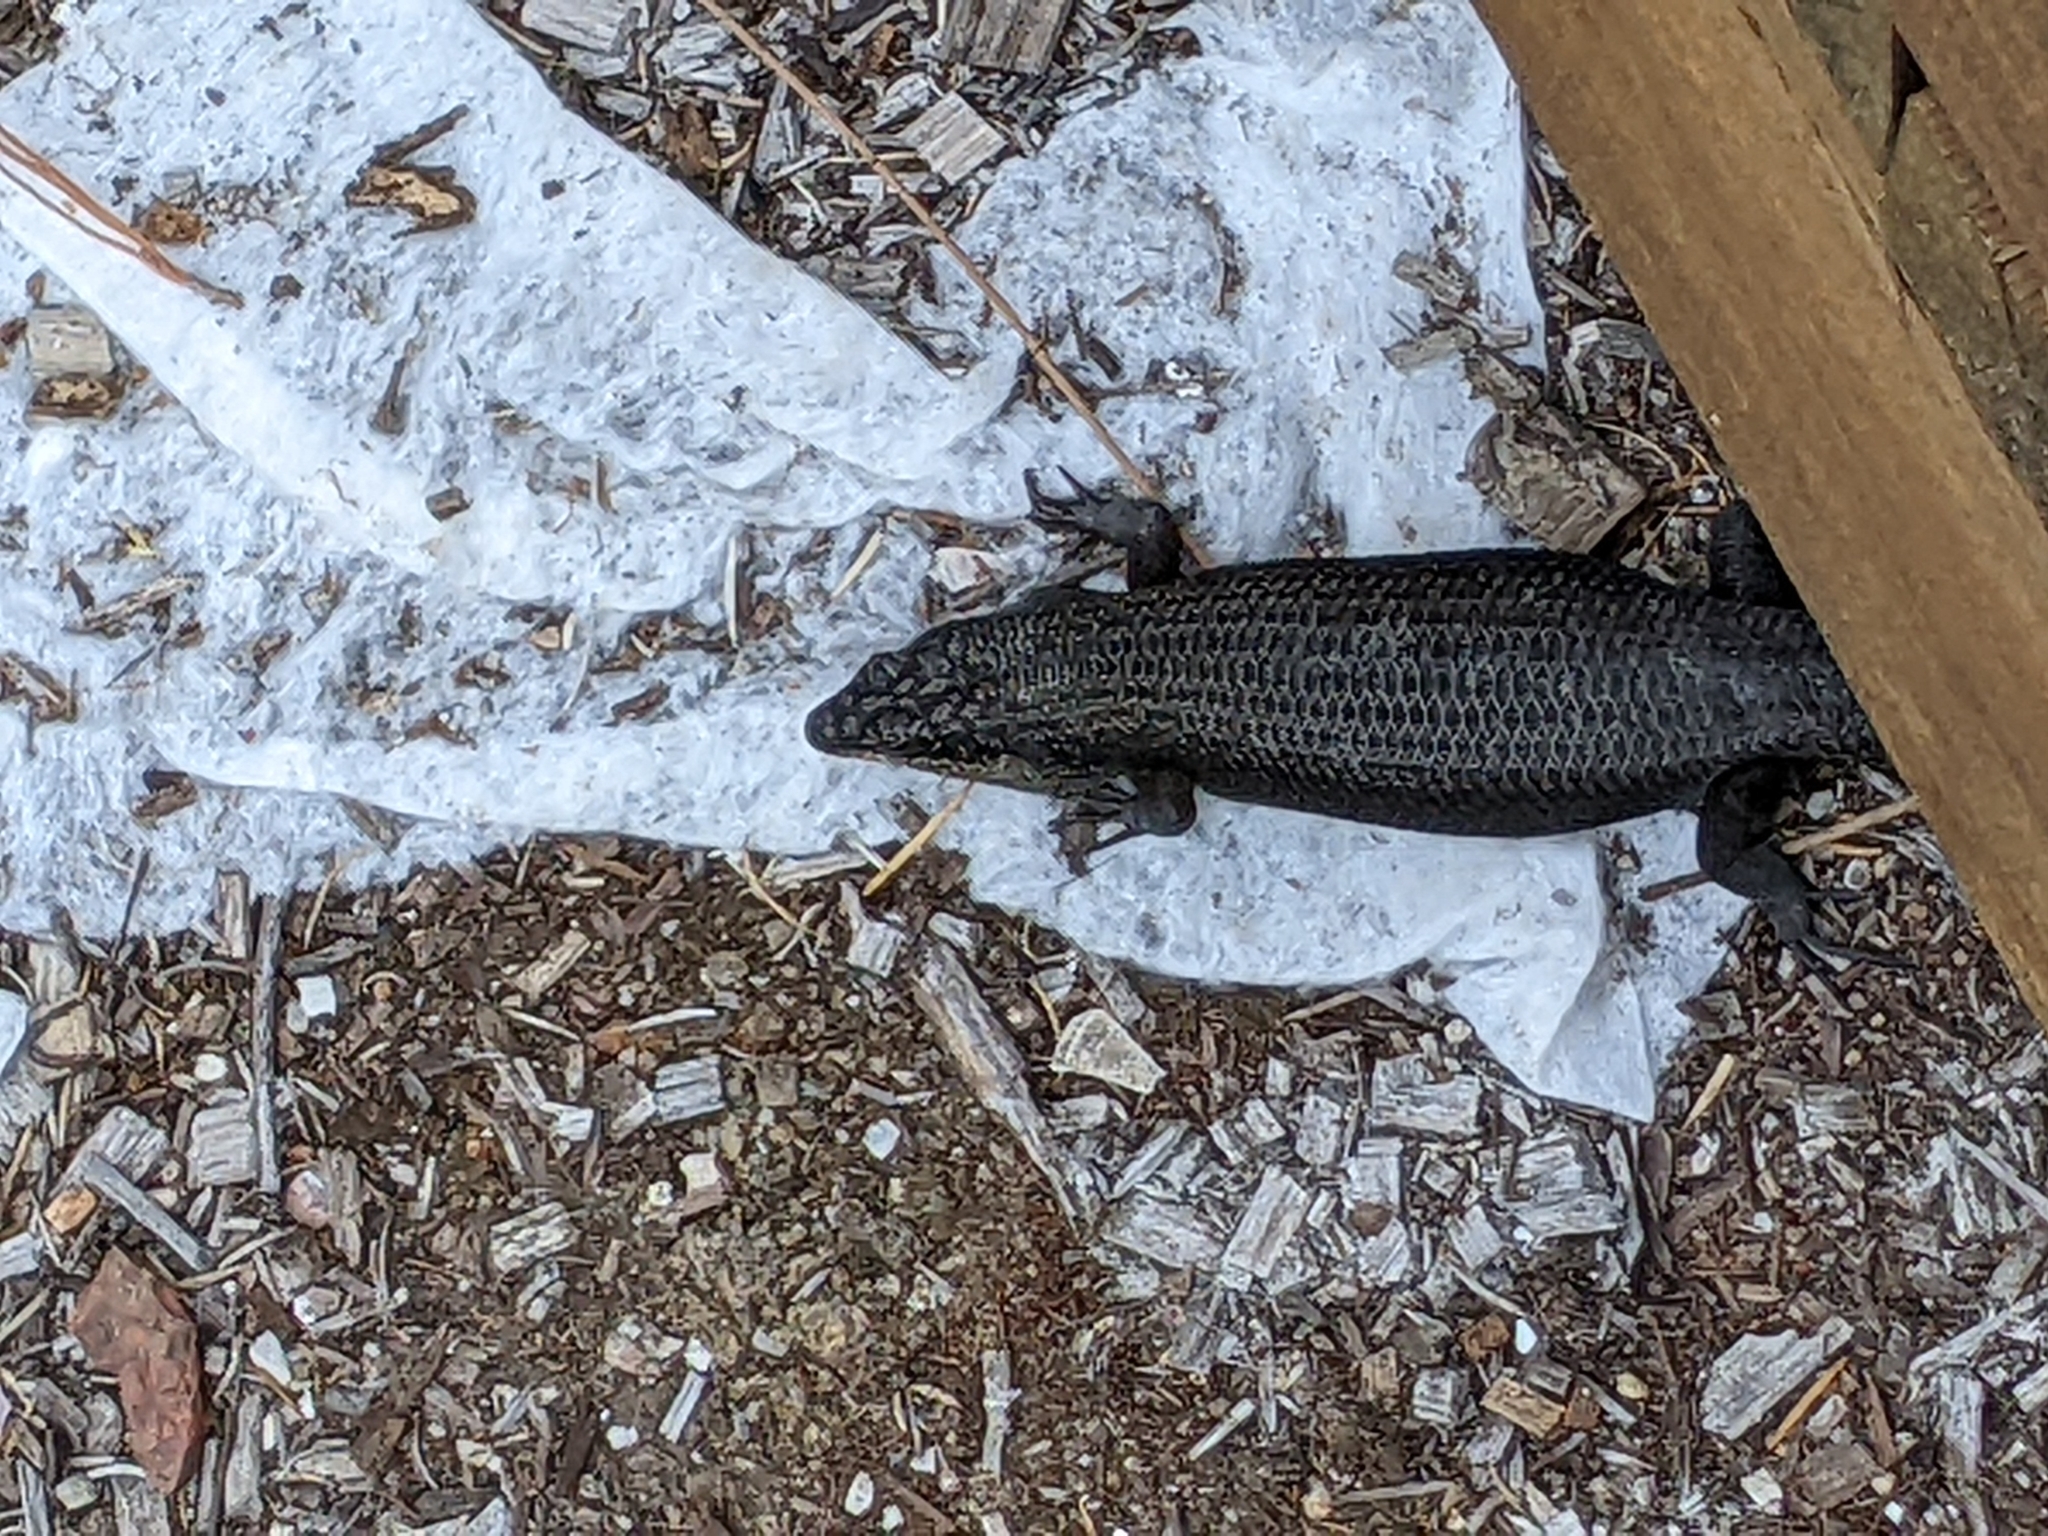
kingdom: Animalia
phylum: Chordata
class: Squamata
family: Scincidae
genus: Egernia
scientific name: Egernia saxatilis
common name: Black crevice-skink
